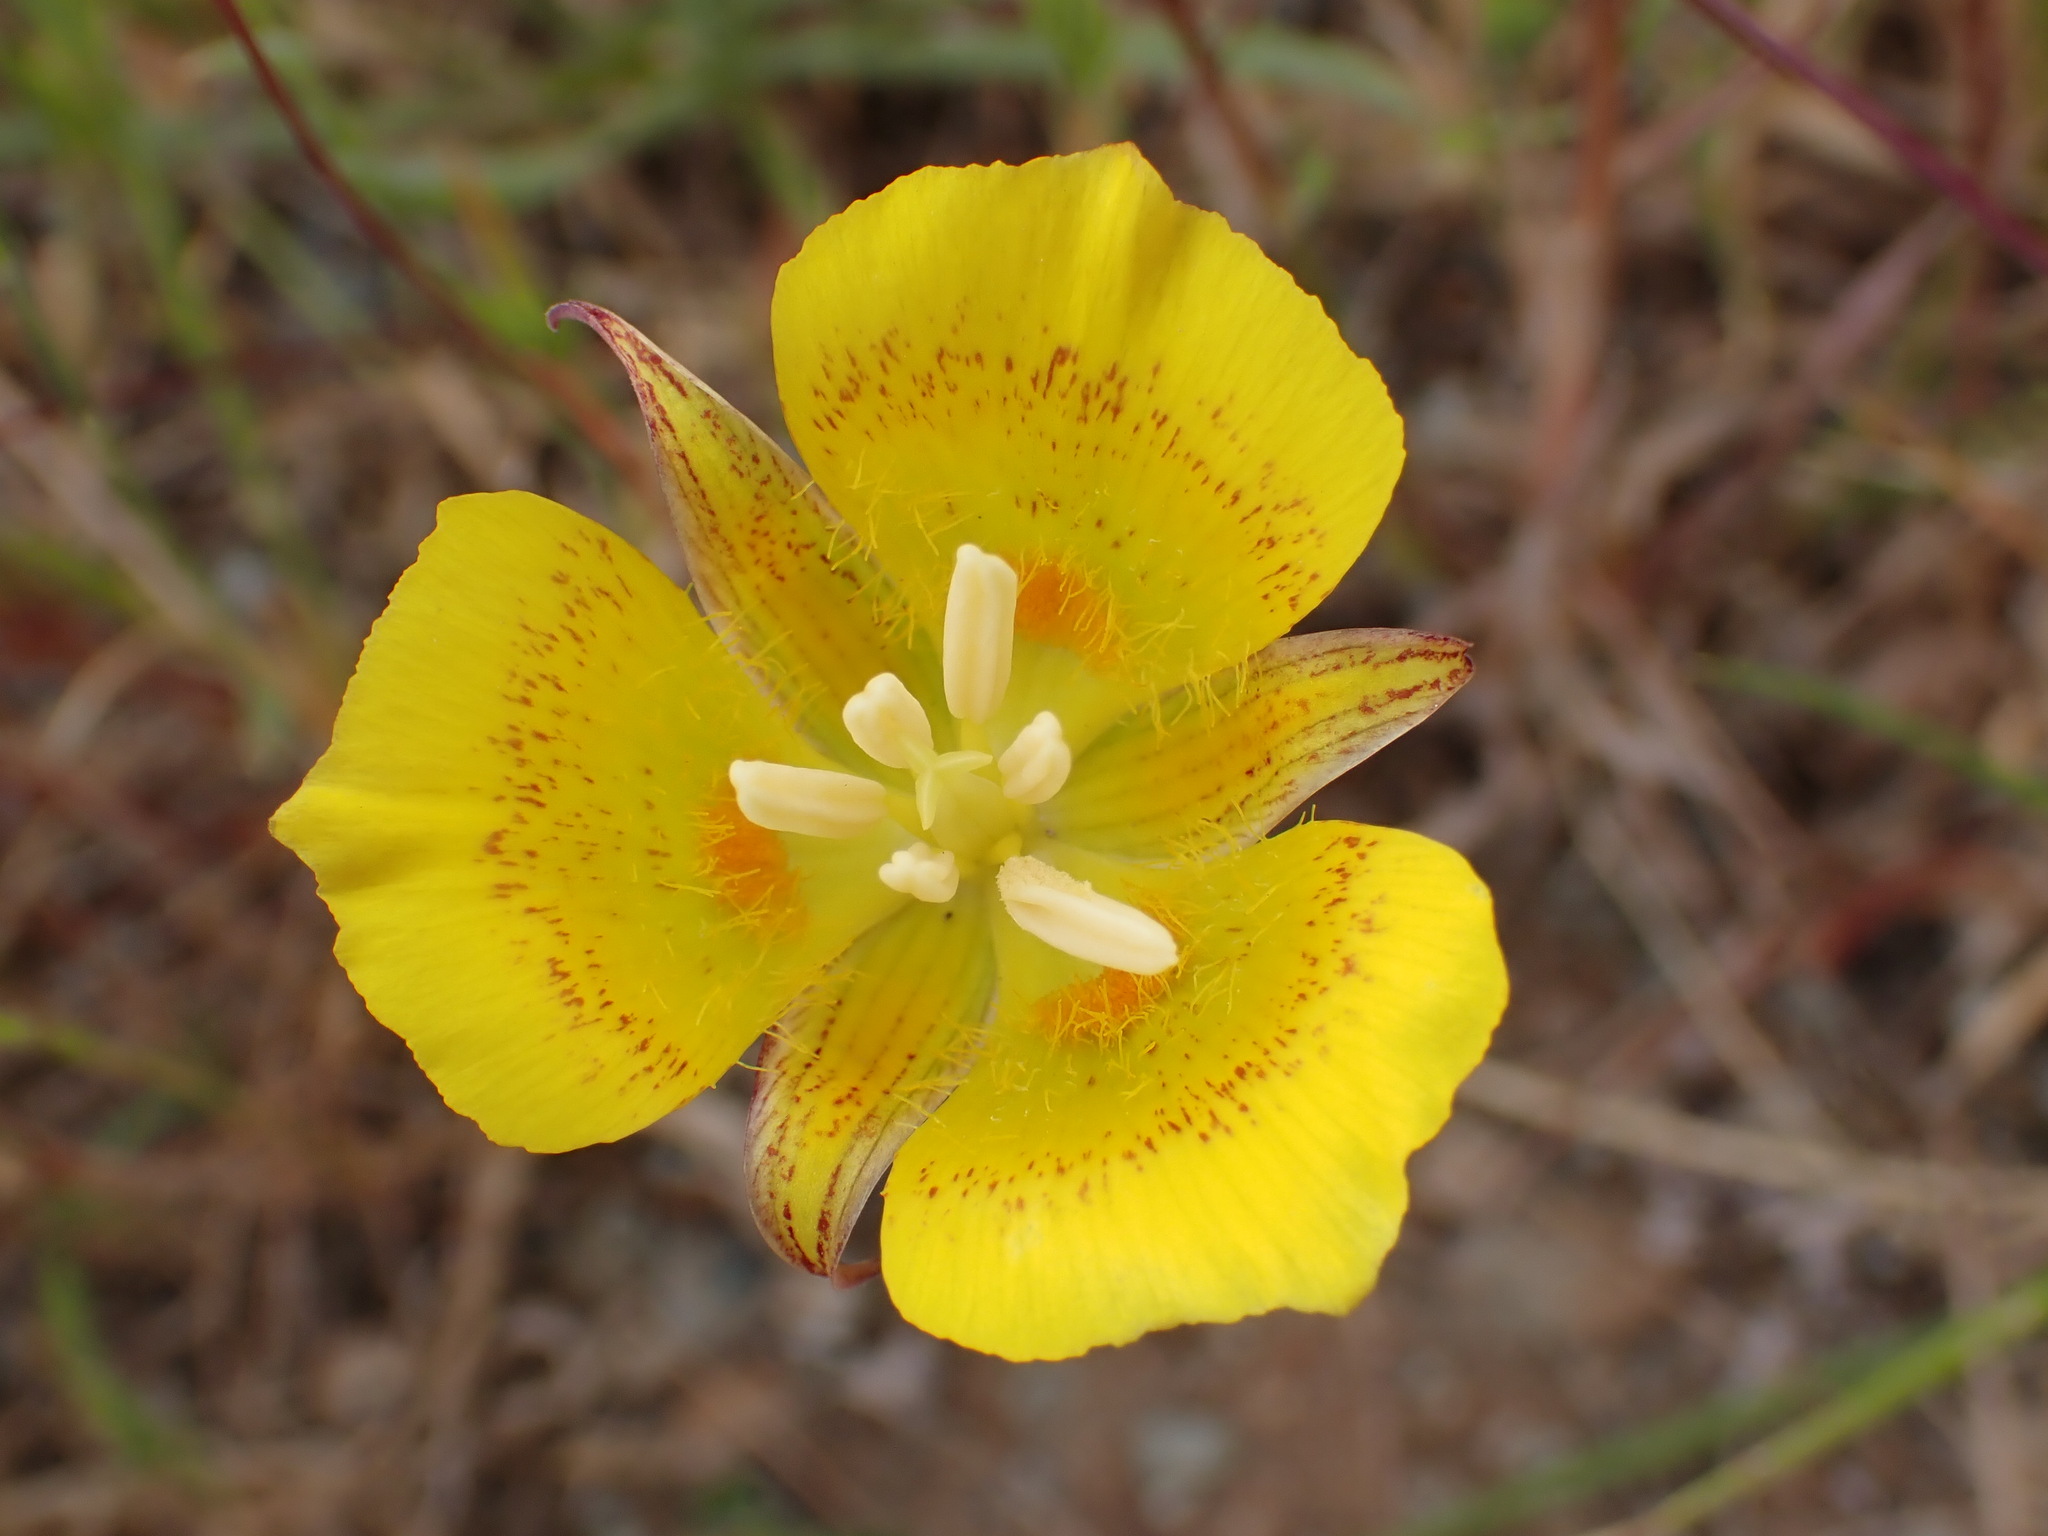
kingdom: Plantae
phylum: Tracheophyta
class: Liliopsida
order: Liliales
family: Liliaceae
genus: Calochortus
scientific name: Calochortus luteus
